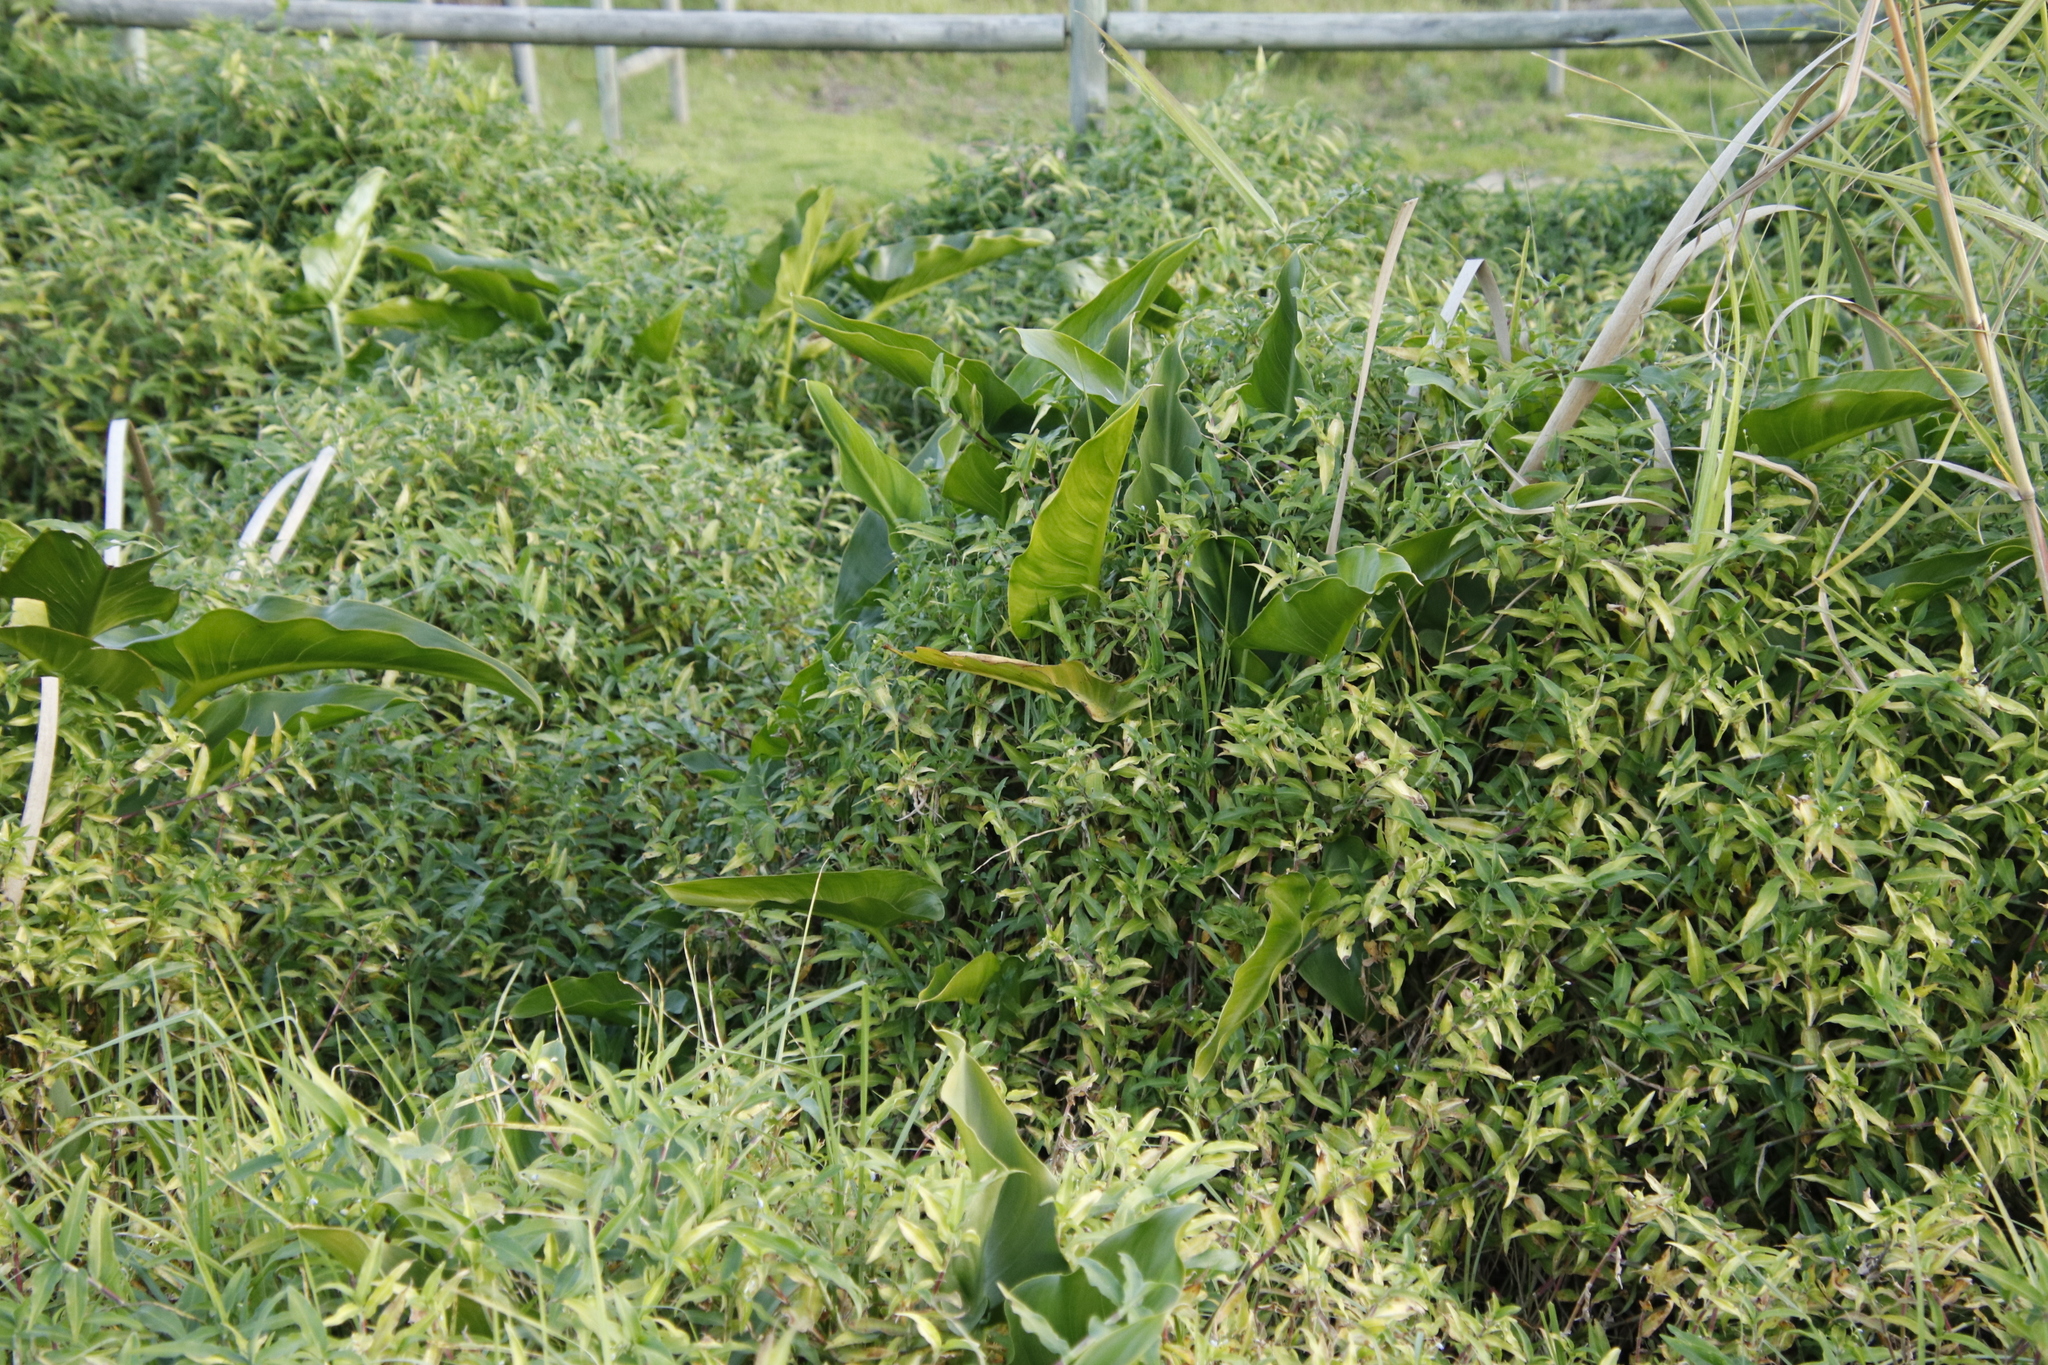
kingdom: Plantae
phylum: Tracheophyta
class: Liliopsida
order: Alismatales
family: Araceae
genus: Zantedeschia
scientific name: Zantedeschia aethiopica
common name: Altar-lily
